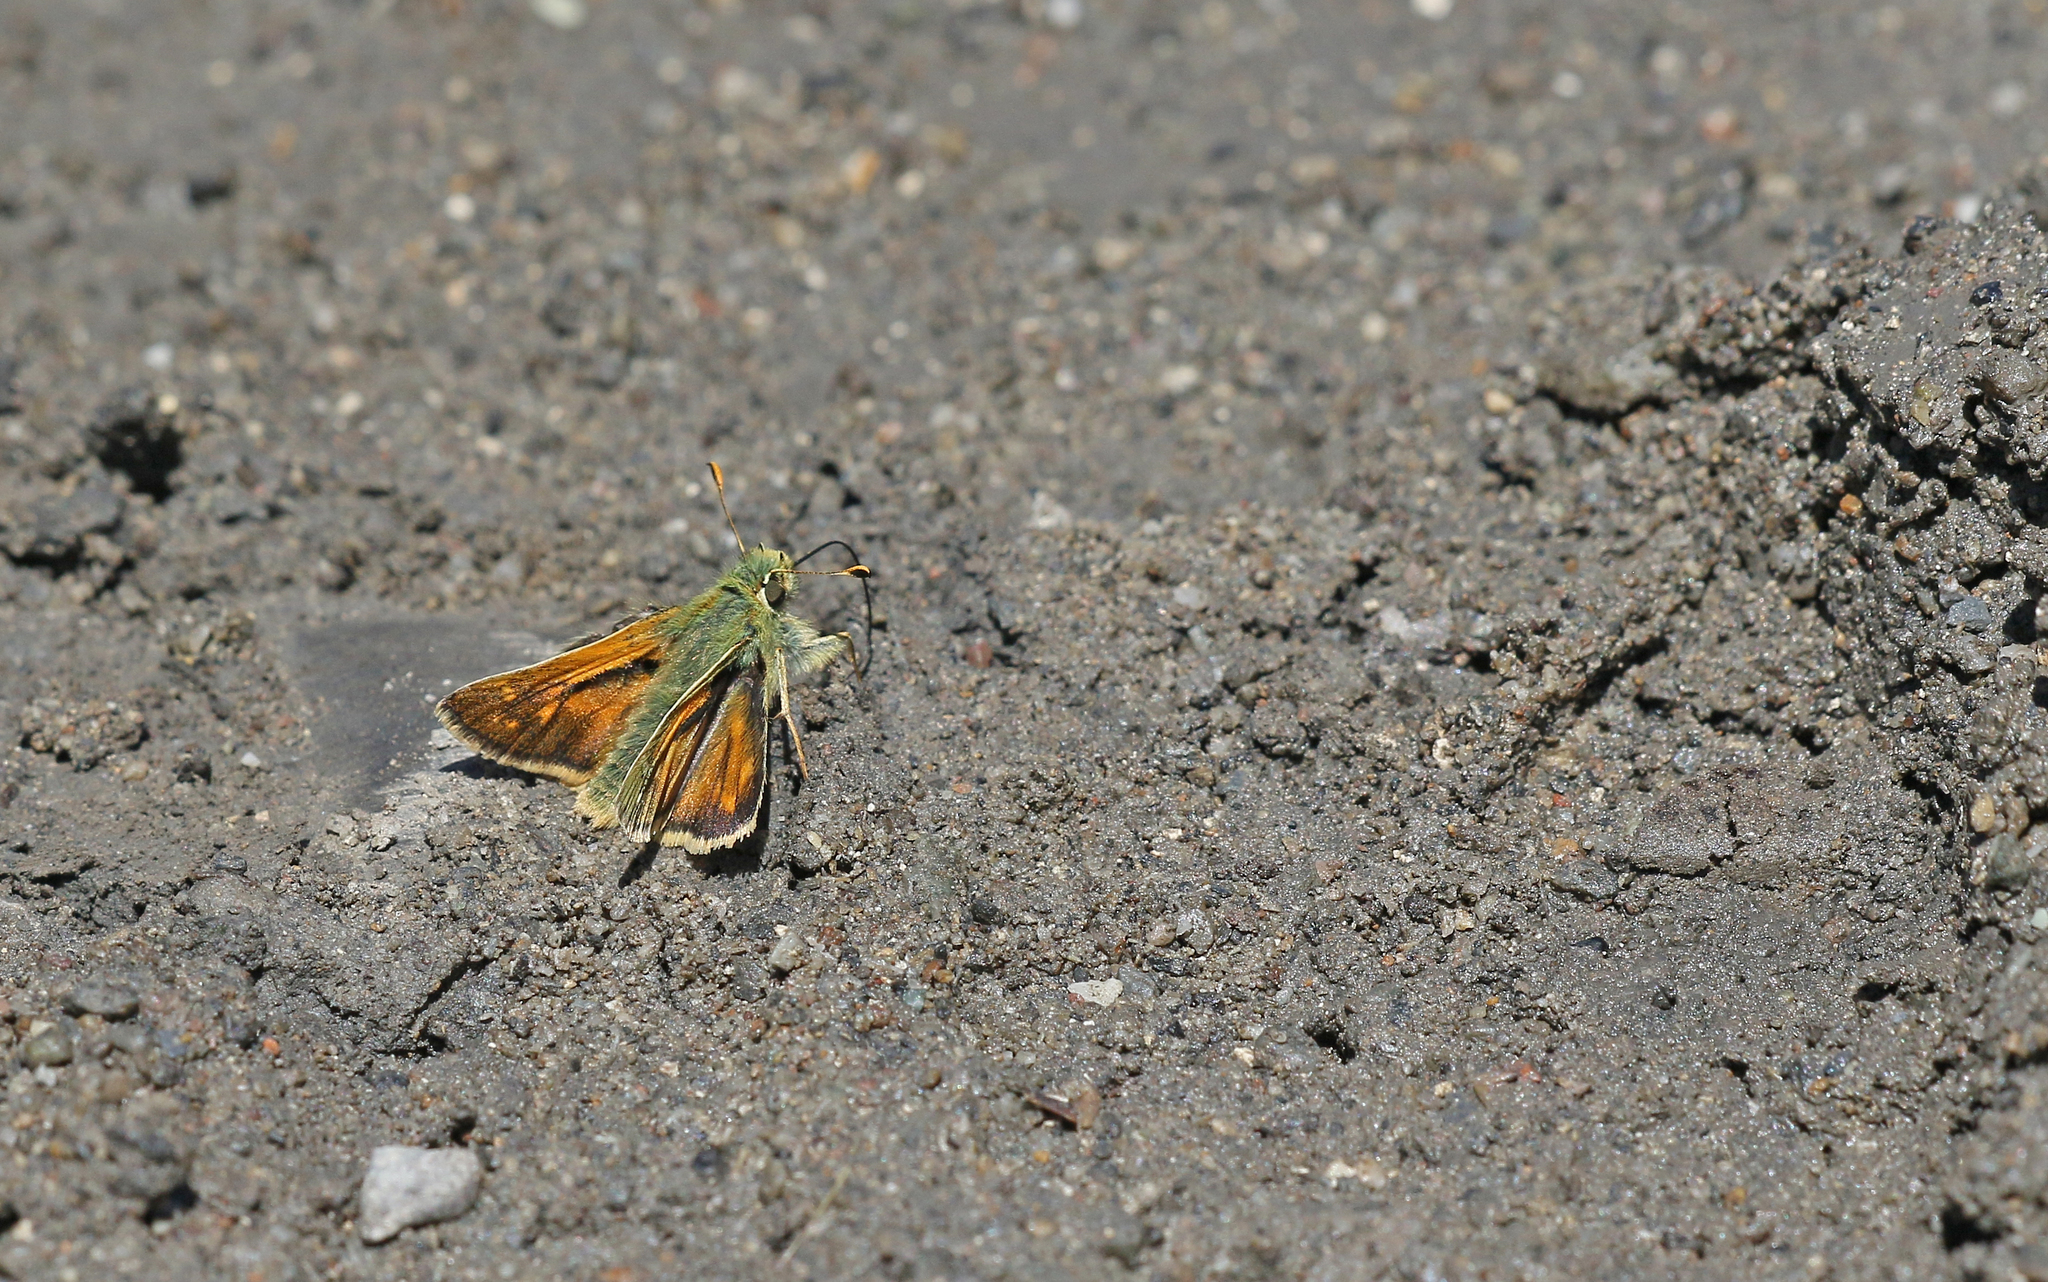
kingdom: Animalia
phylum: Arthropoda
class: Insecta
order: Lepidoptera
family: Hesperiidae
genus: Hesperia
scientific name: Hesperia comma
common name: Common branded skipper
